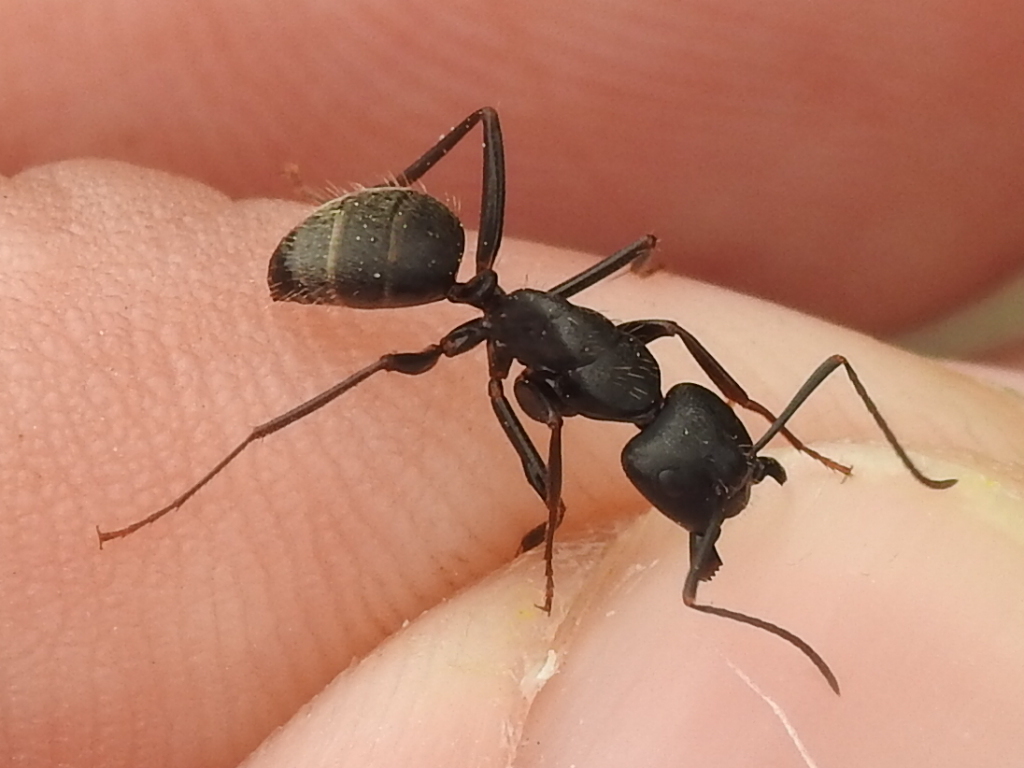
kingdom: Animalia
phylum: Arthropoda
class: Insecta
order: Hymenoptera
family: Formicidae
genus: Camponotus
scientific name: Camponotus pennsylvanicus
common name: Black carpenter ant
